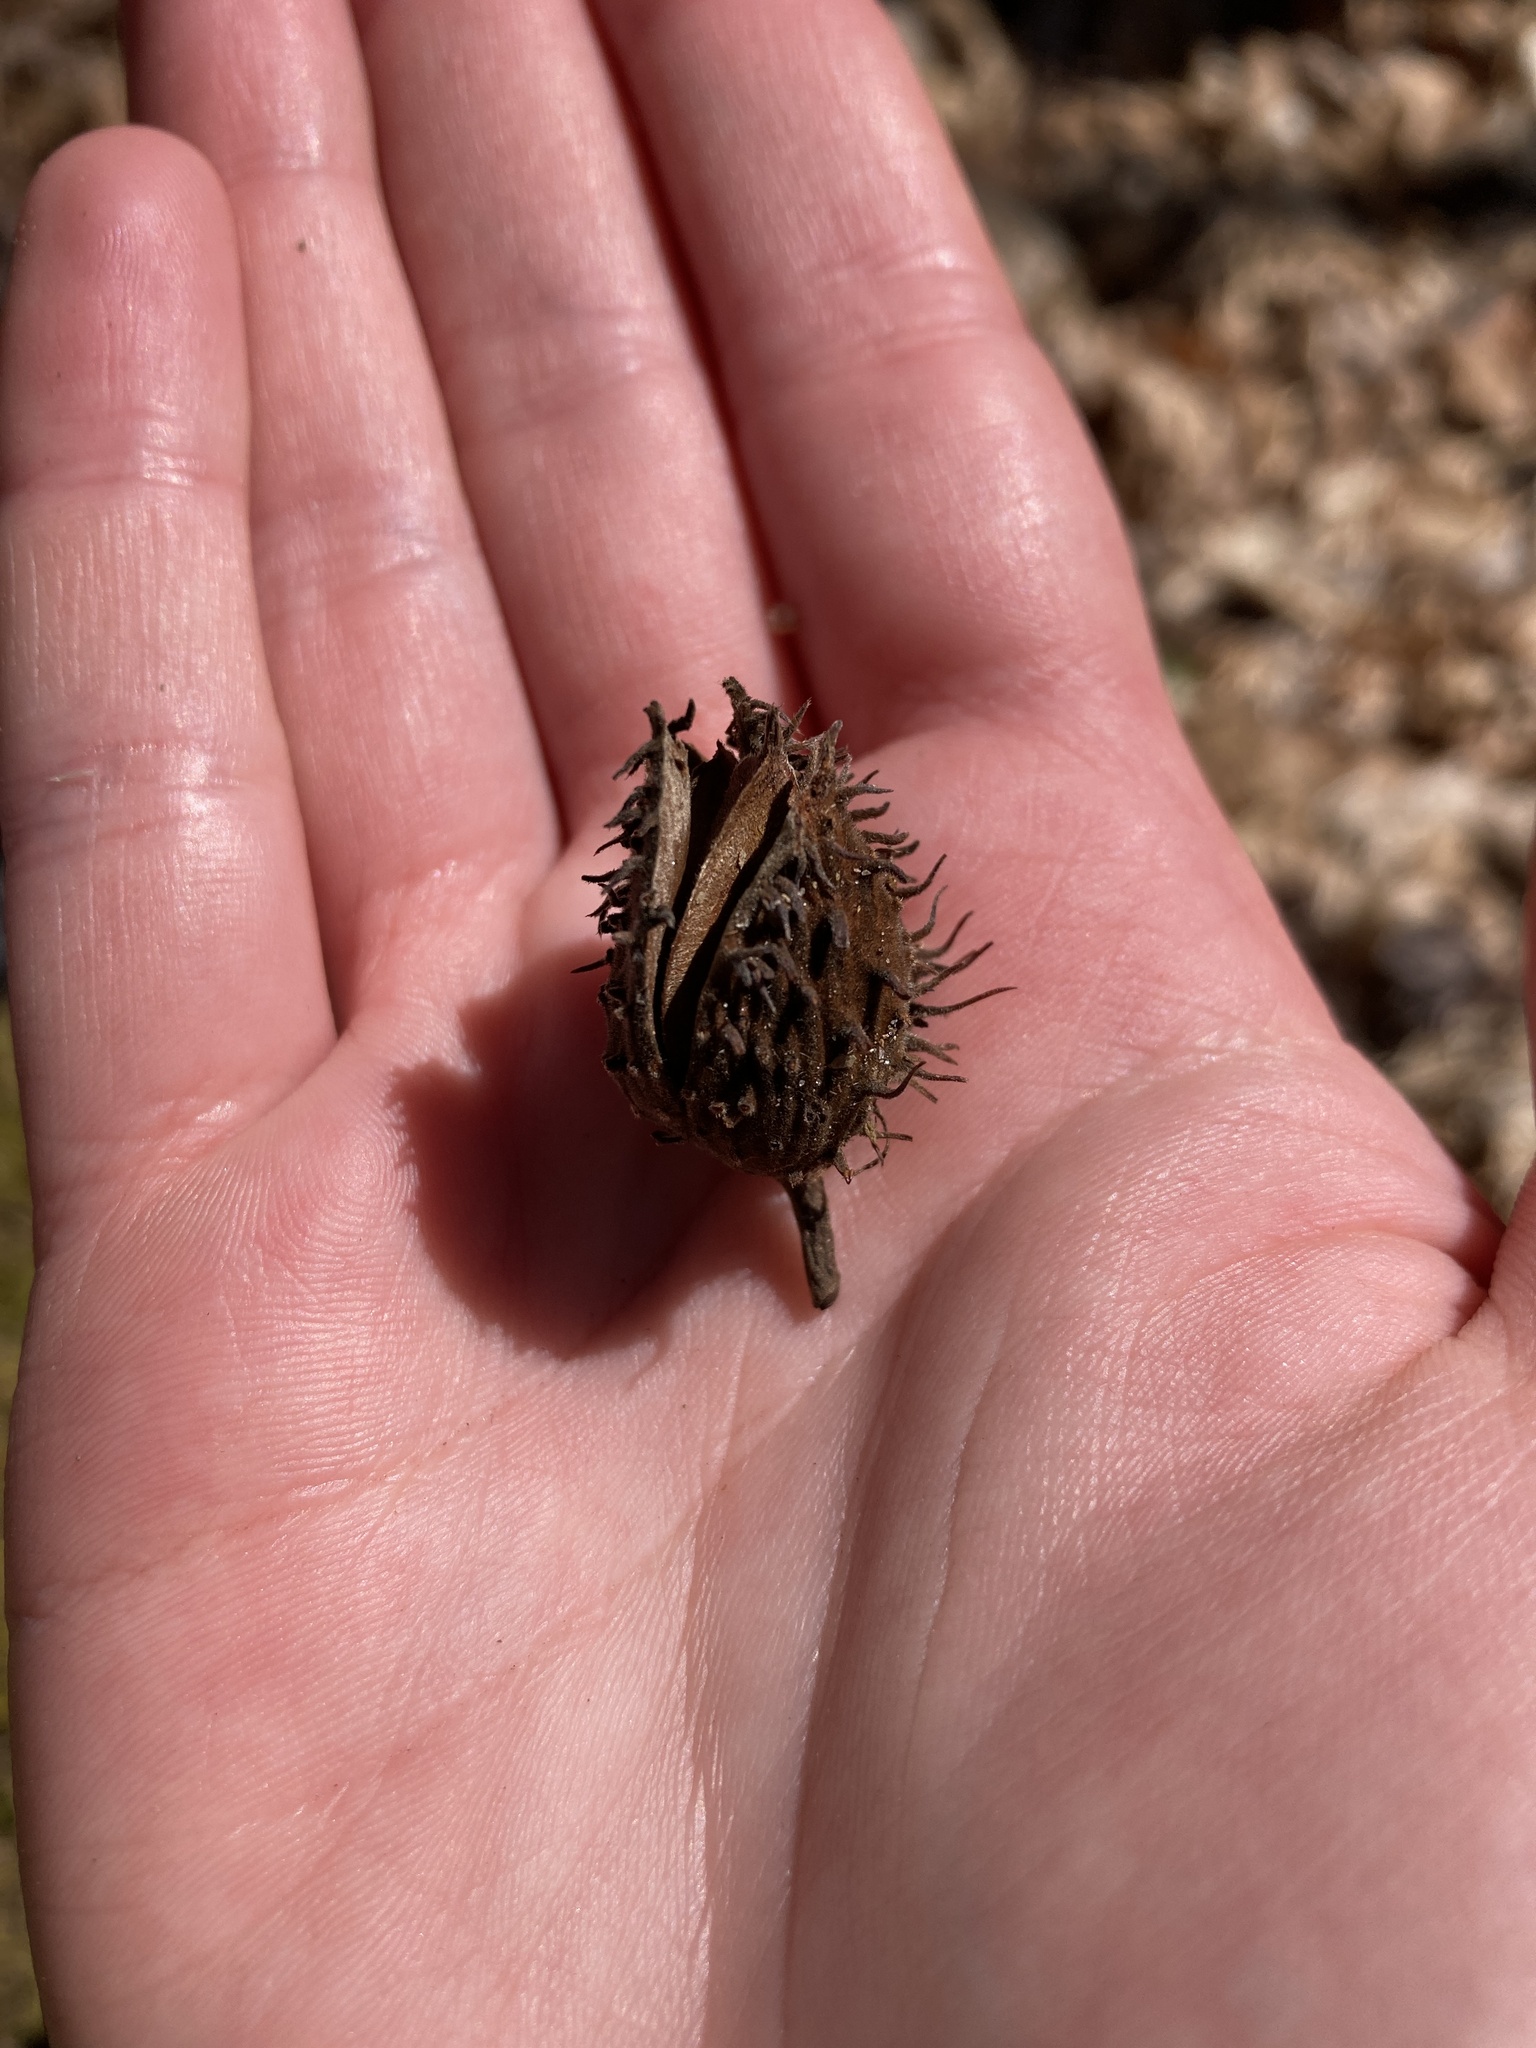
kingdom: Plantae
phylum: Tracheophyta
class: Magnoliopsida
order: Fagales
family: Fagaceae
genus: Fagus
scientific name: Fagus grandifolia
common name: American beech
